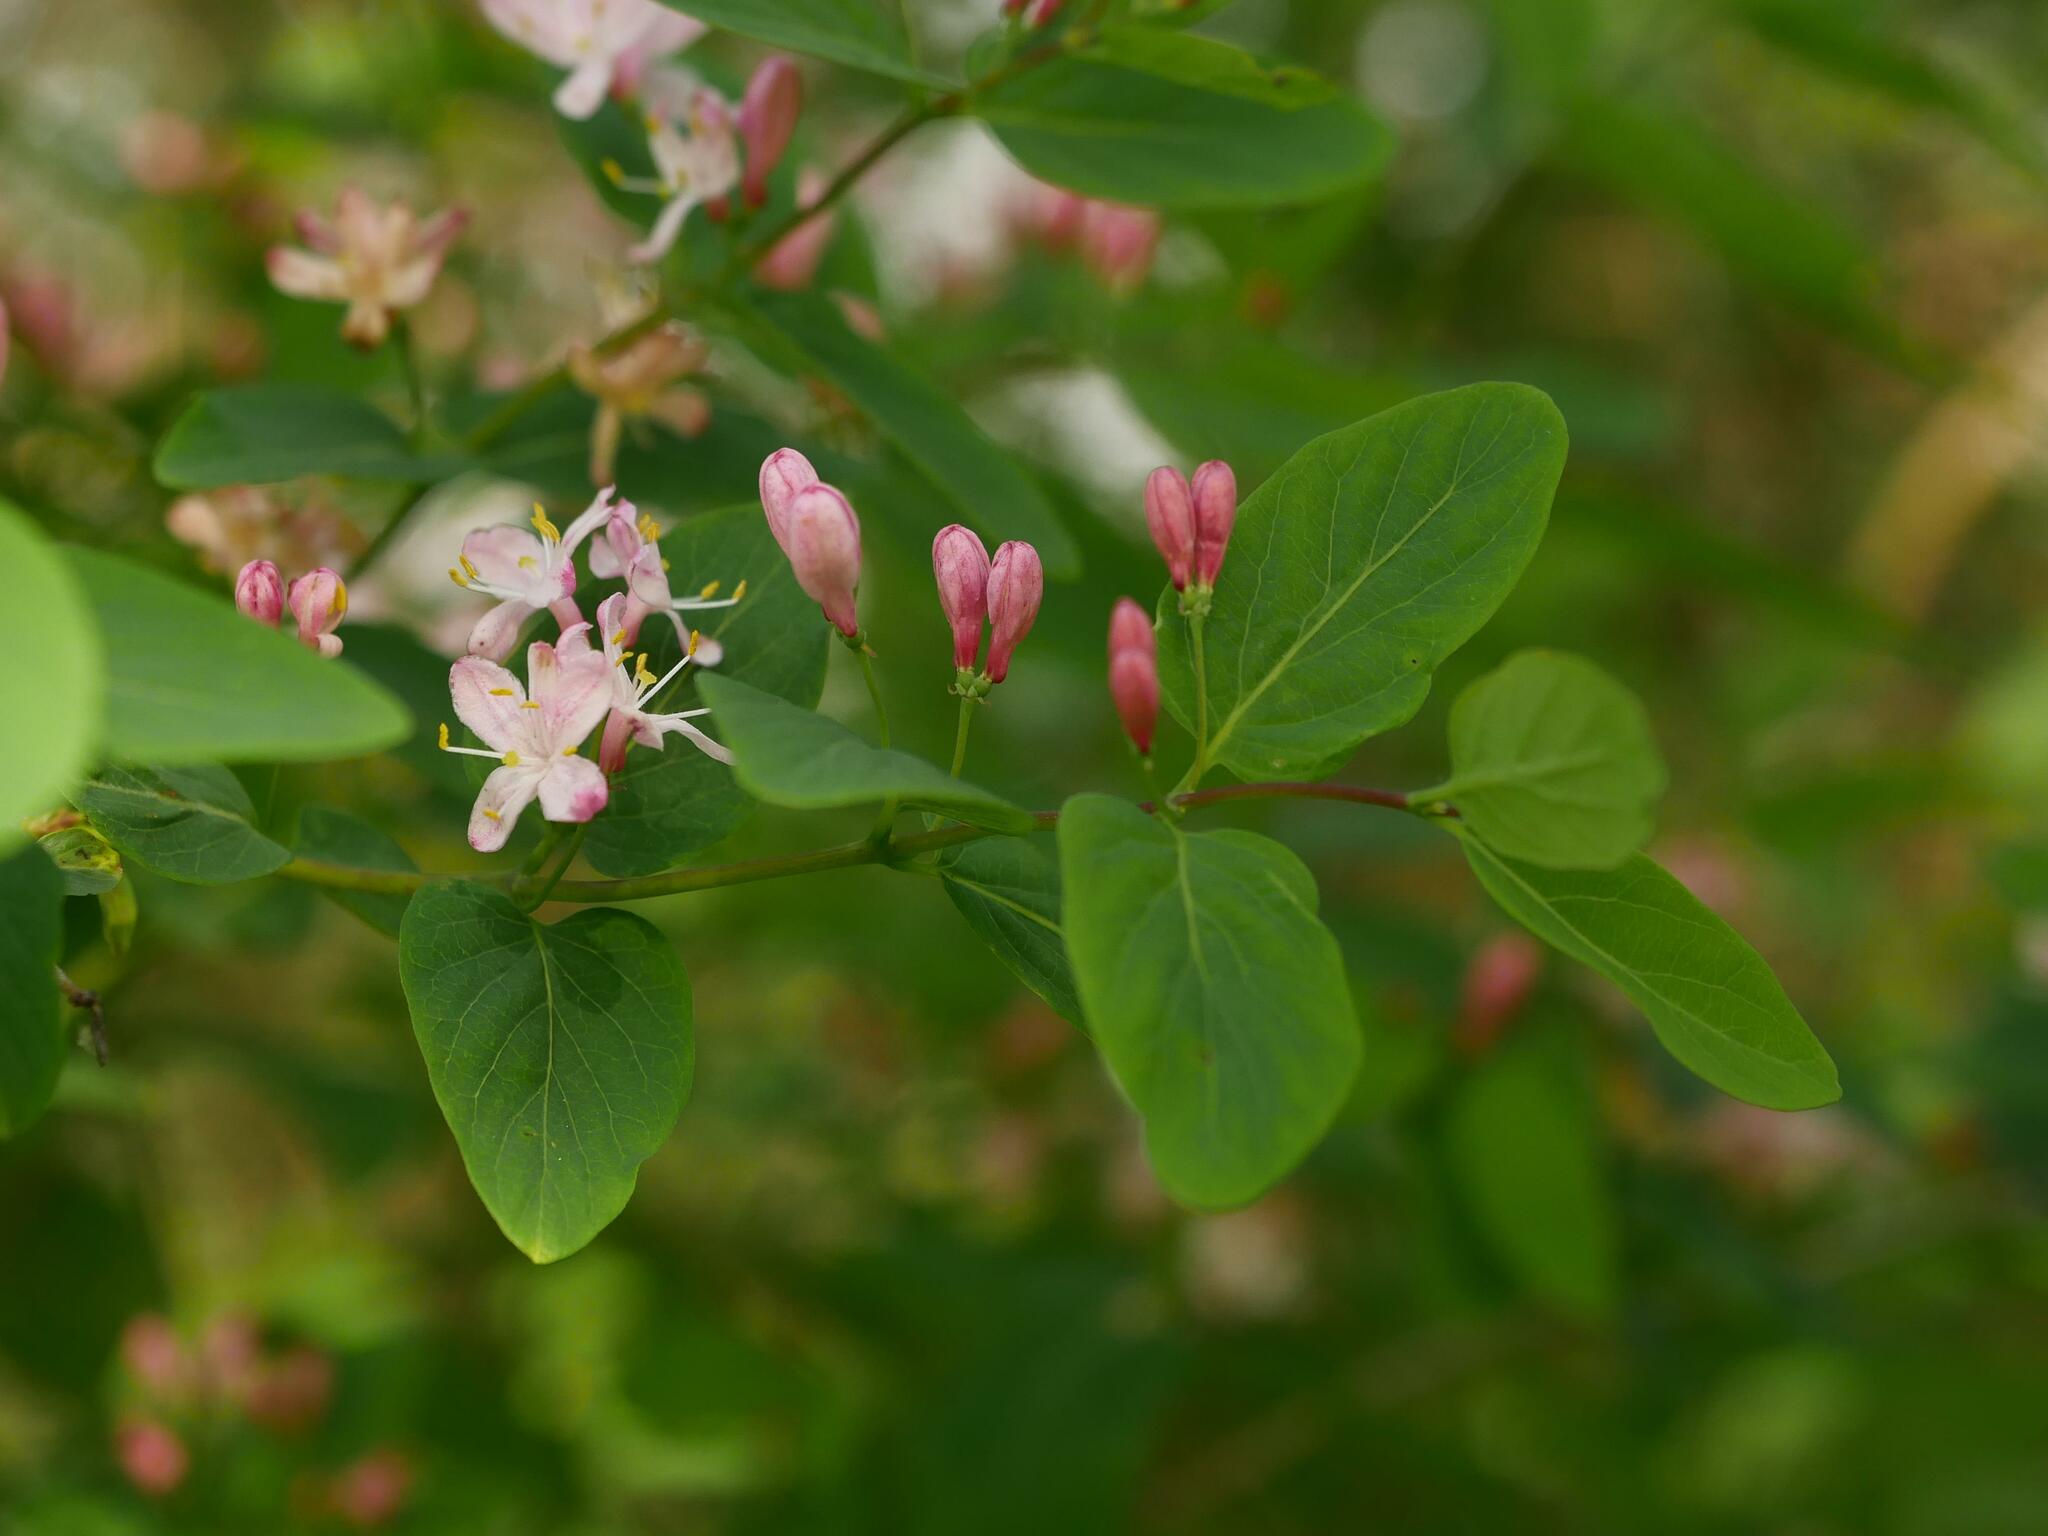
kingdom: Plantae
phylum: Tracheophyta
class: Magnoliopsida
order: Dipsacales
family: Caprifoliaceae
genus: Lonicera
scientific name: Lonicera tatarica
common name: Tatarian honeysuckle
